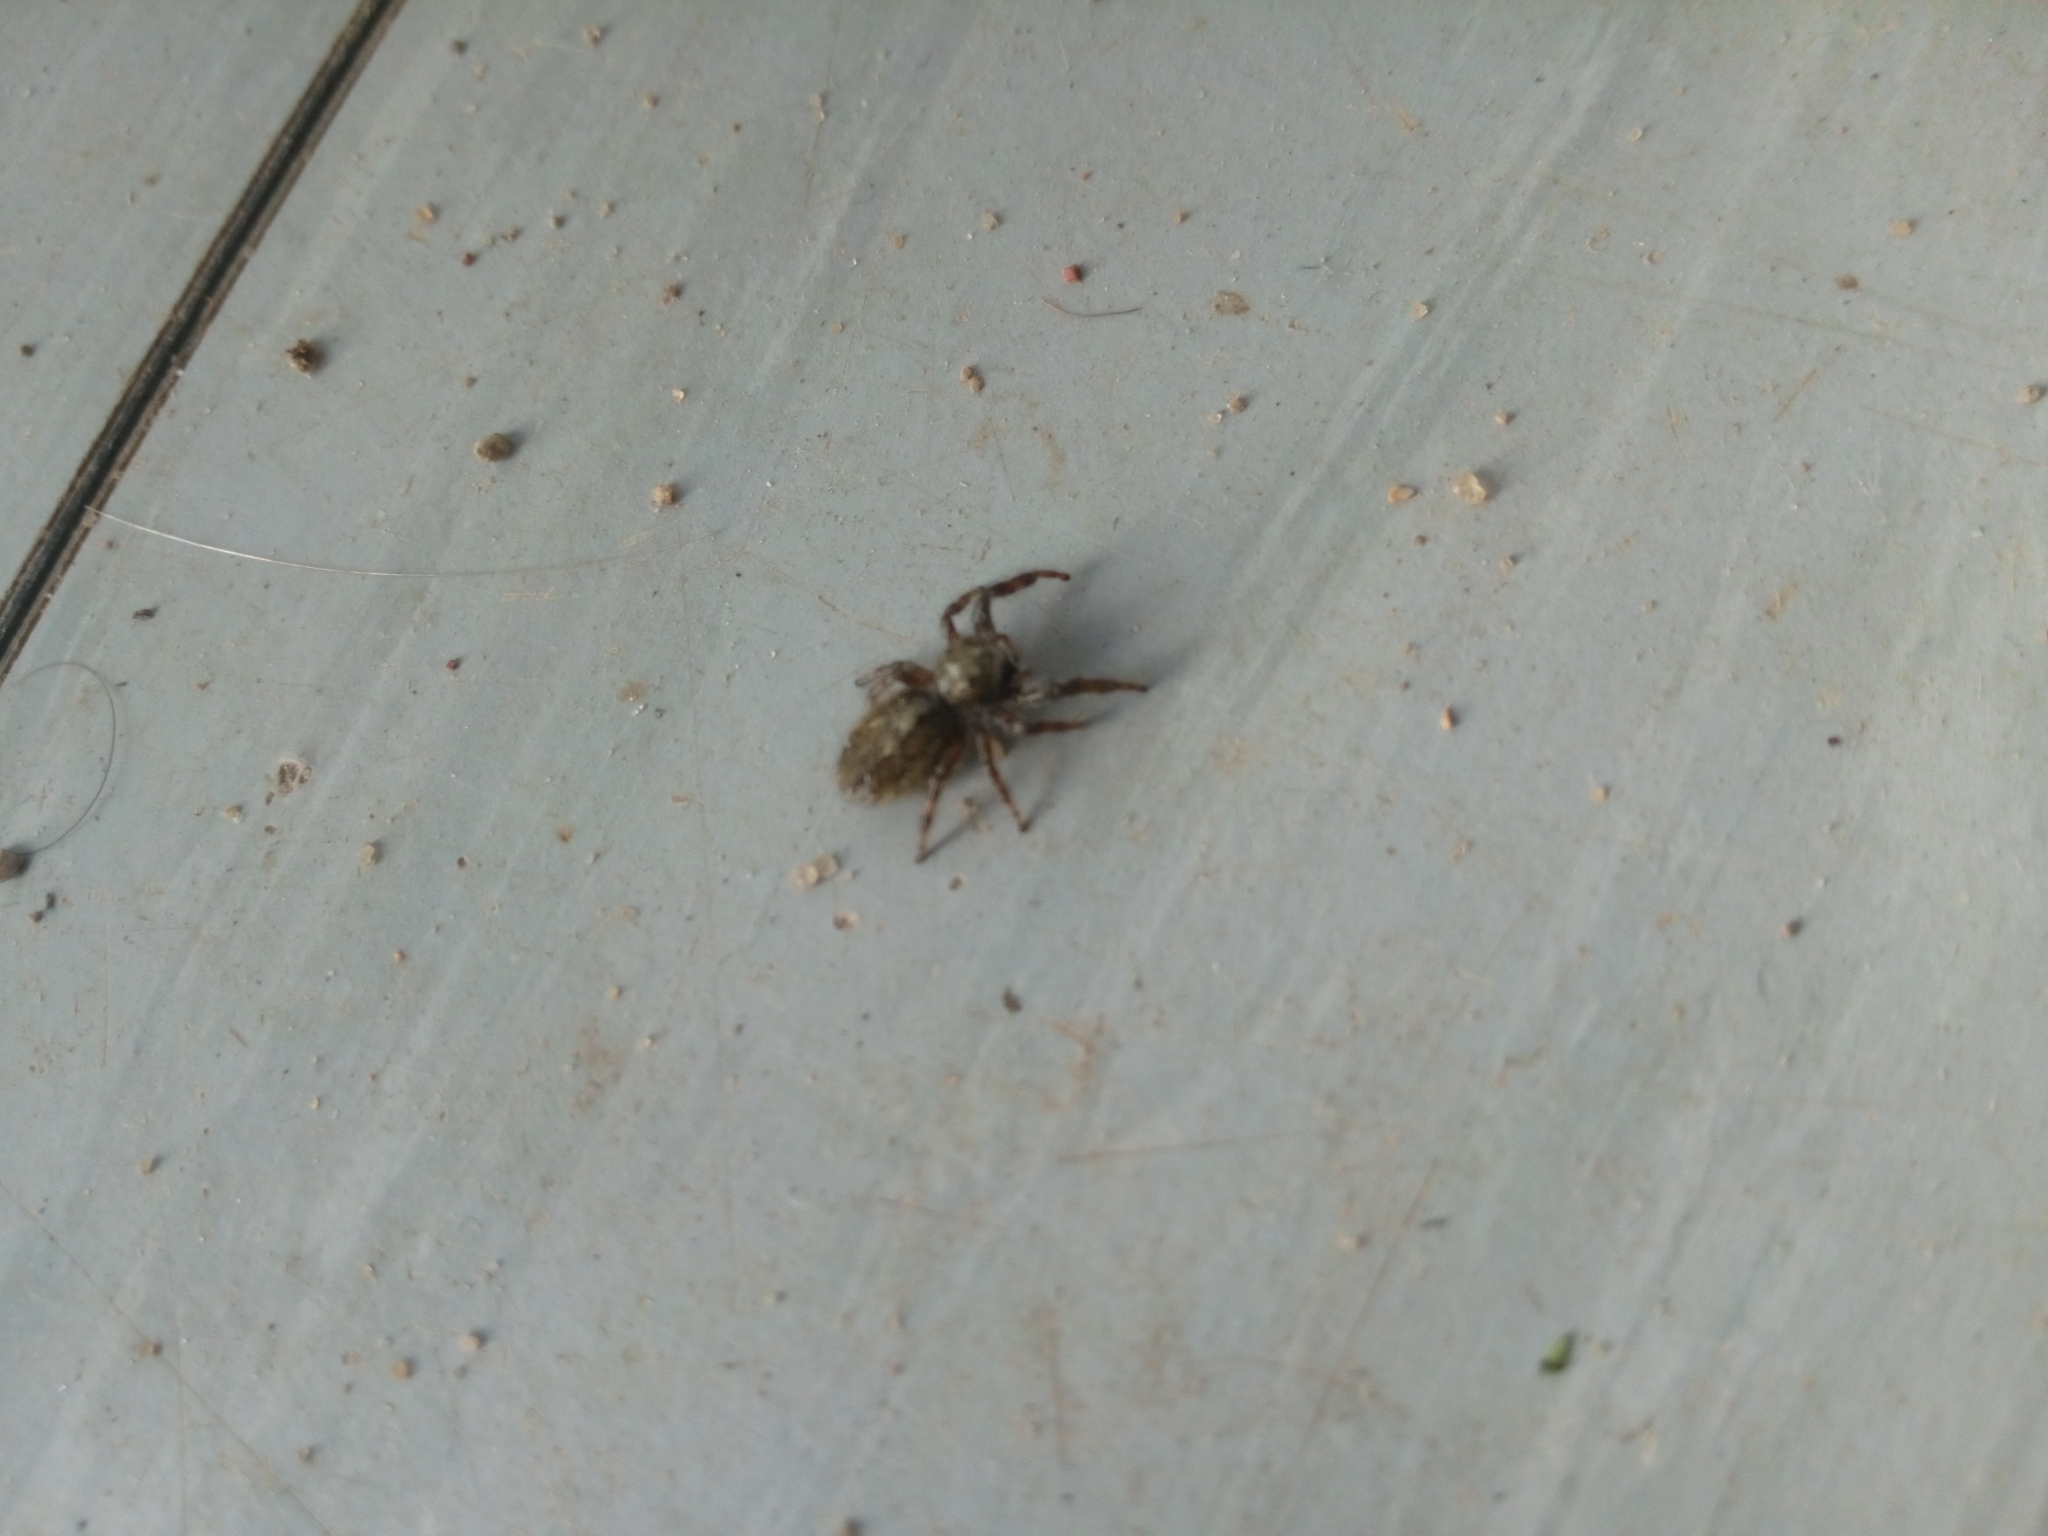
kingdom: Animalia
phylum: Arthropoda
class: Arachnida
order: Araneae
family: Salticidae
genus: Dendryphantes
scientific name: Dendryphantes hastatus
